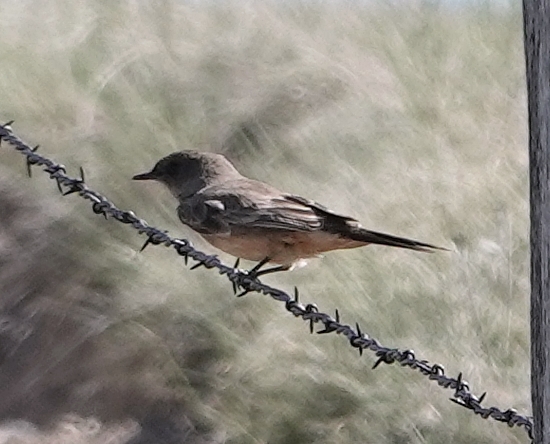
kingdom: Animalia
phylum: Chordata
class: Aves
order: Passeriformes
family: Tyrannidae
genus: Sayornis
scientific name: Sayornis saya
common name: Say's phoebe
